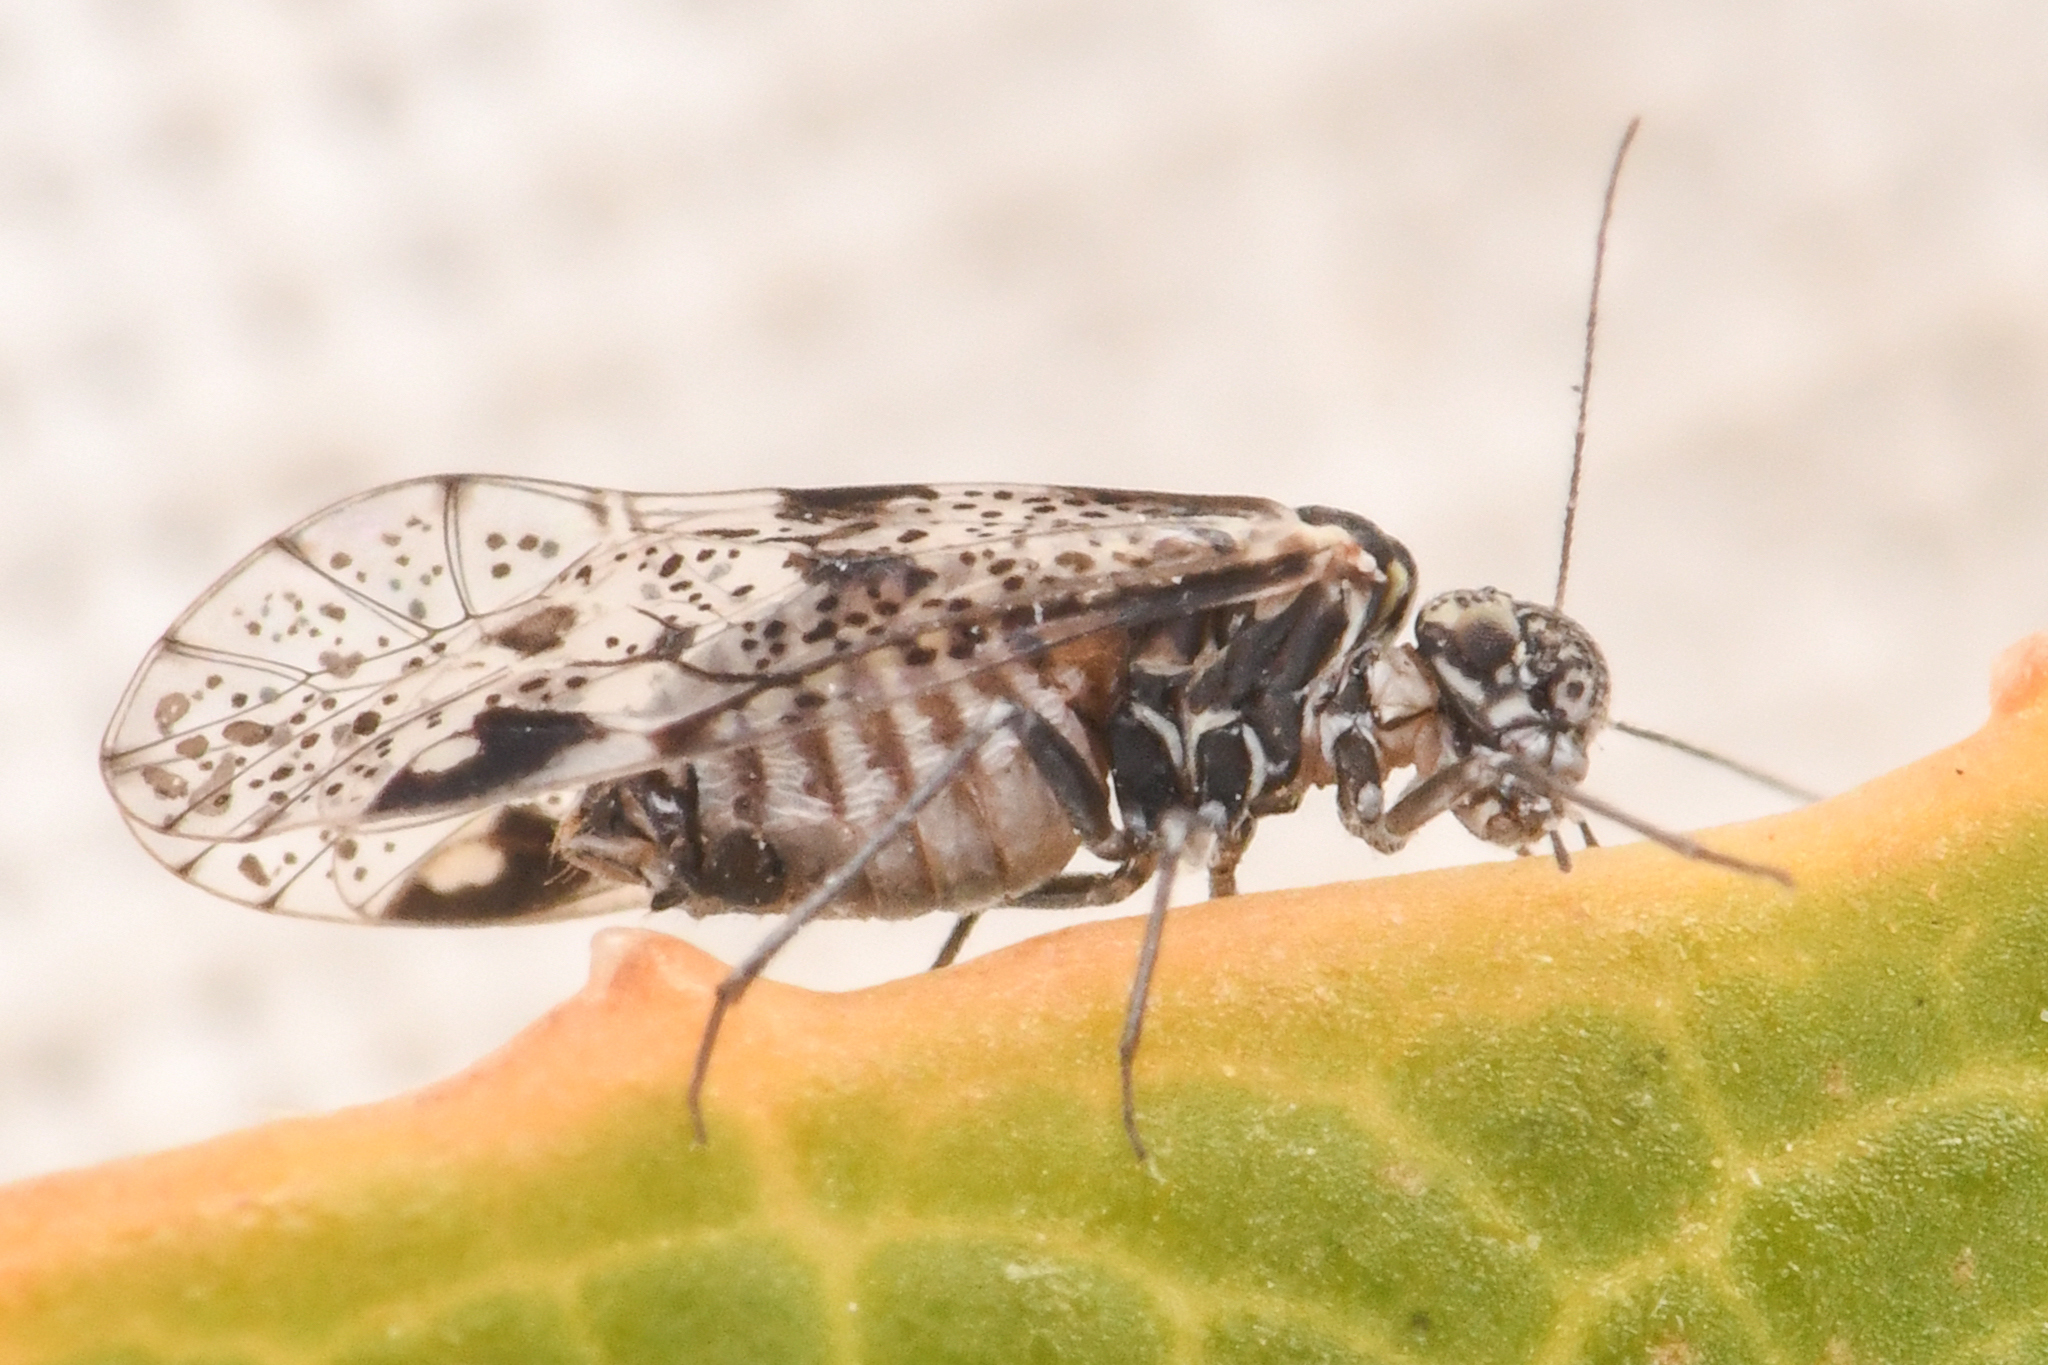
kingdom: Animalia
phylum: Arthropoda
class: Insecta
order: Psocodea
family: Psocidae
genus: Loensia
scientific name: Loensia conspersa
